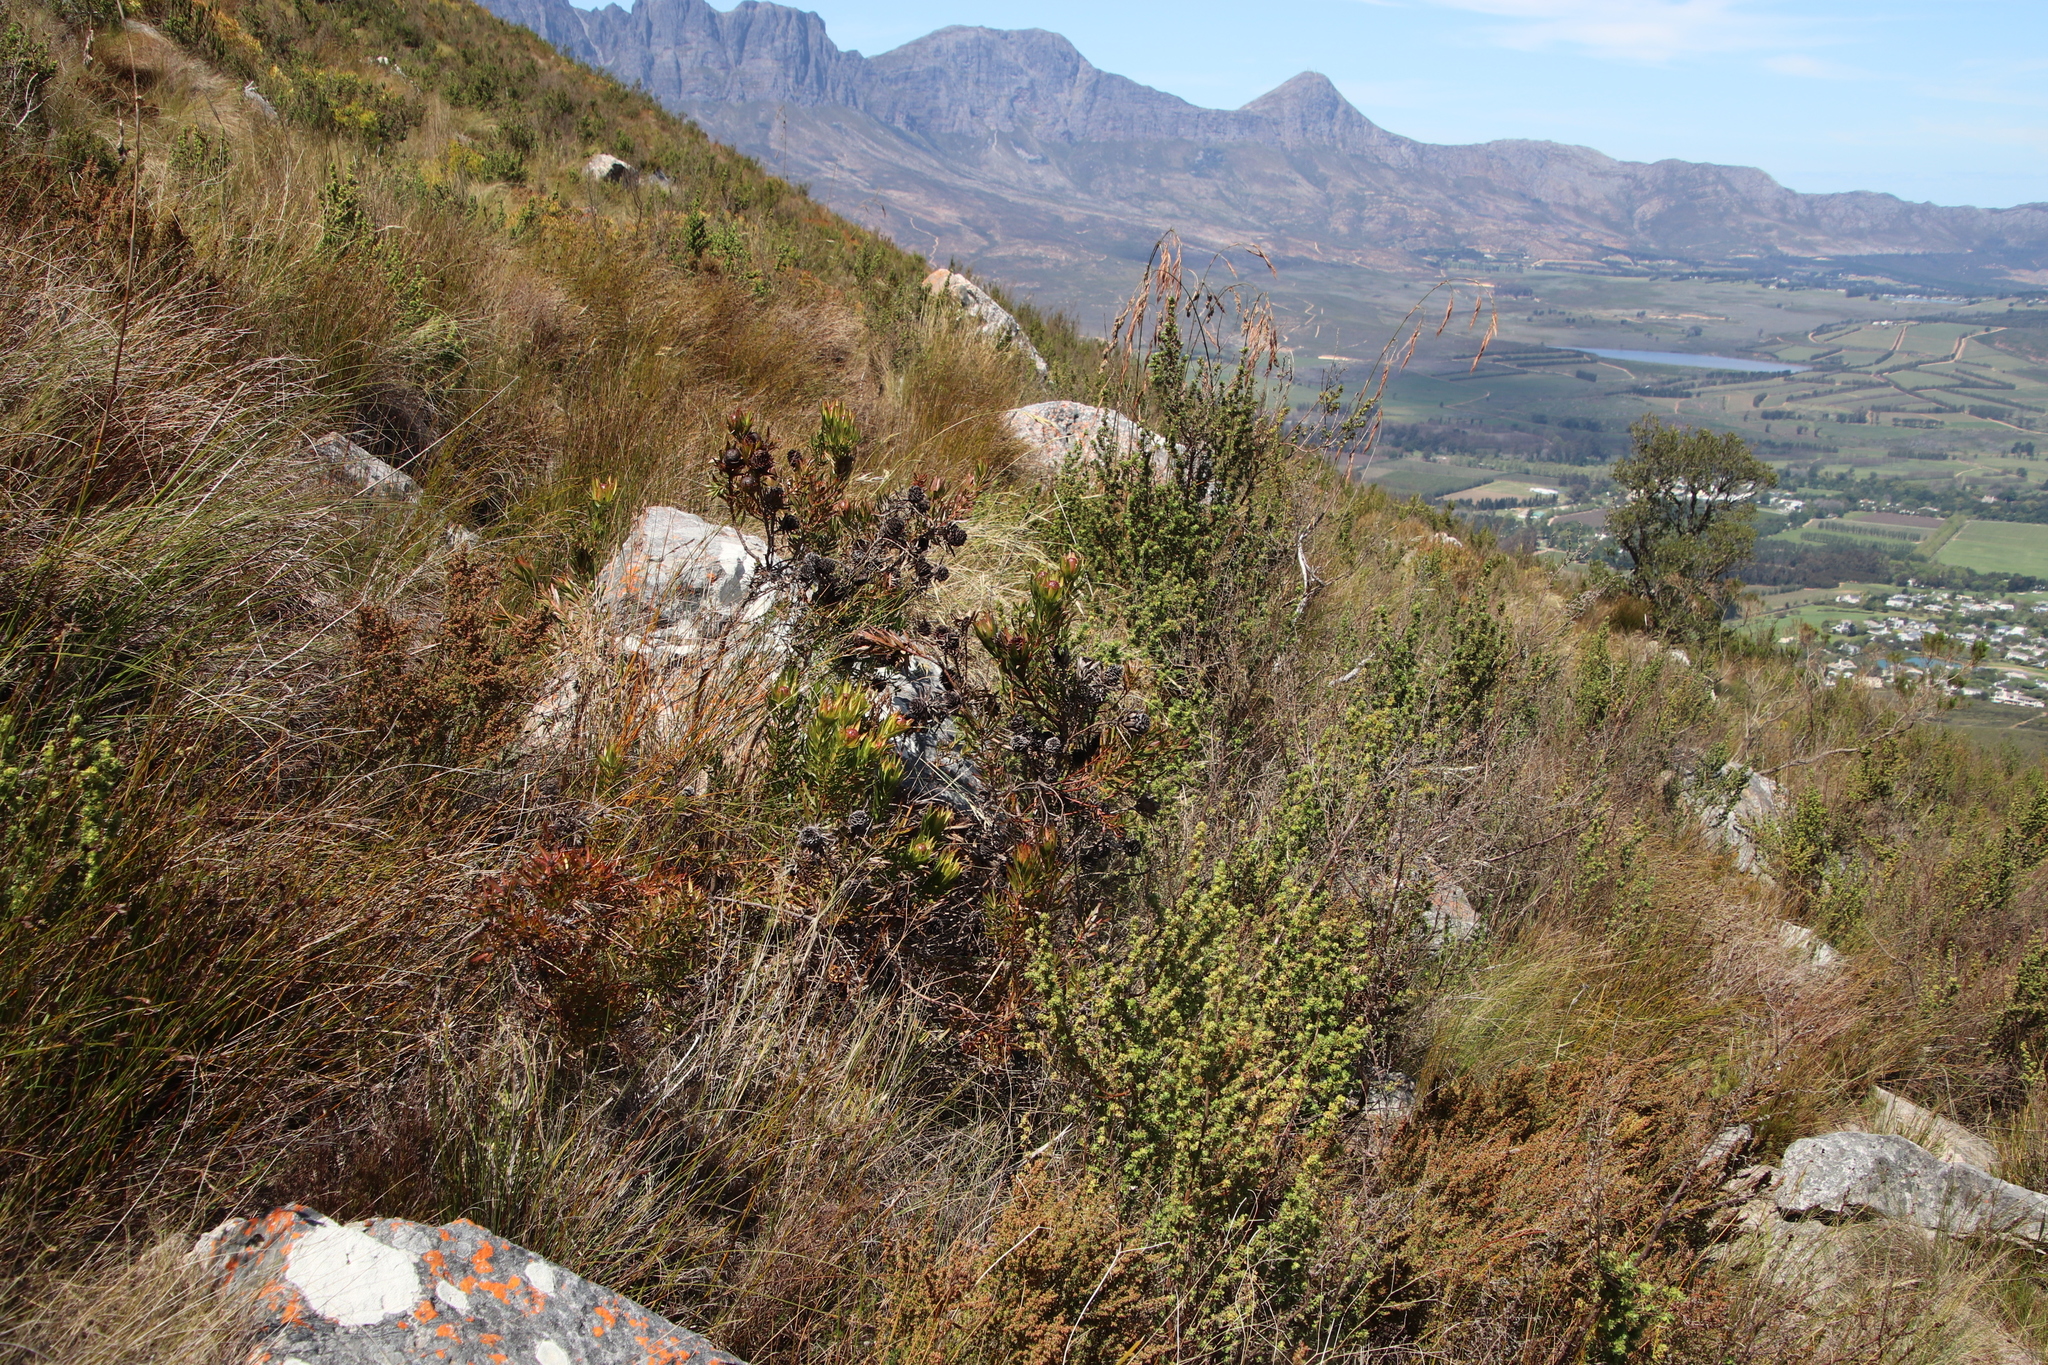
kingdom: Plantae
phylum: Tracheophyta
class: Magnoliopsida
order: Proteales
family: Proteaceae
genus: Leucadendron
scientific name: Leucadendron spissifolium
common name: Spear-leaf conebush
